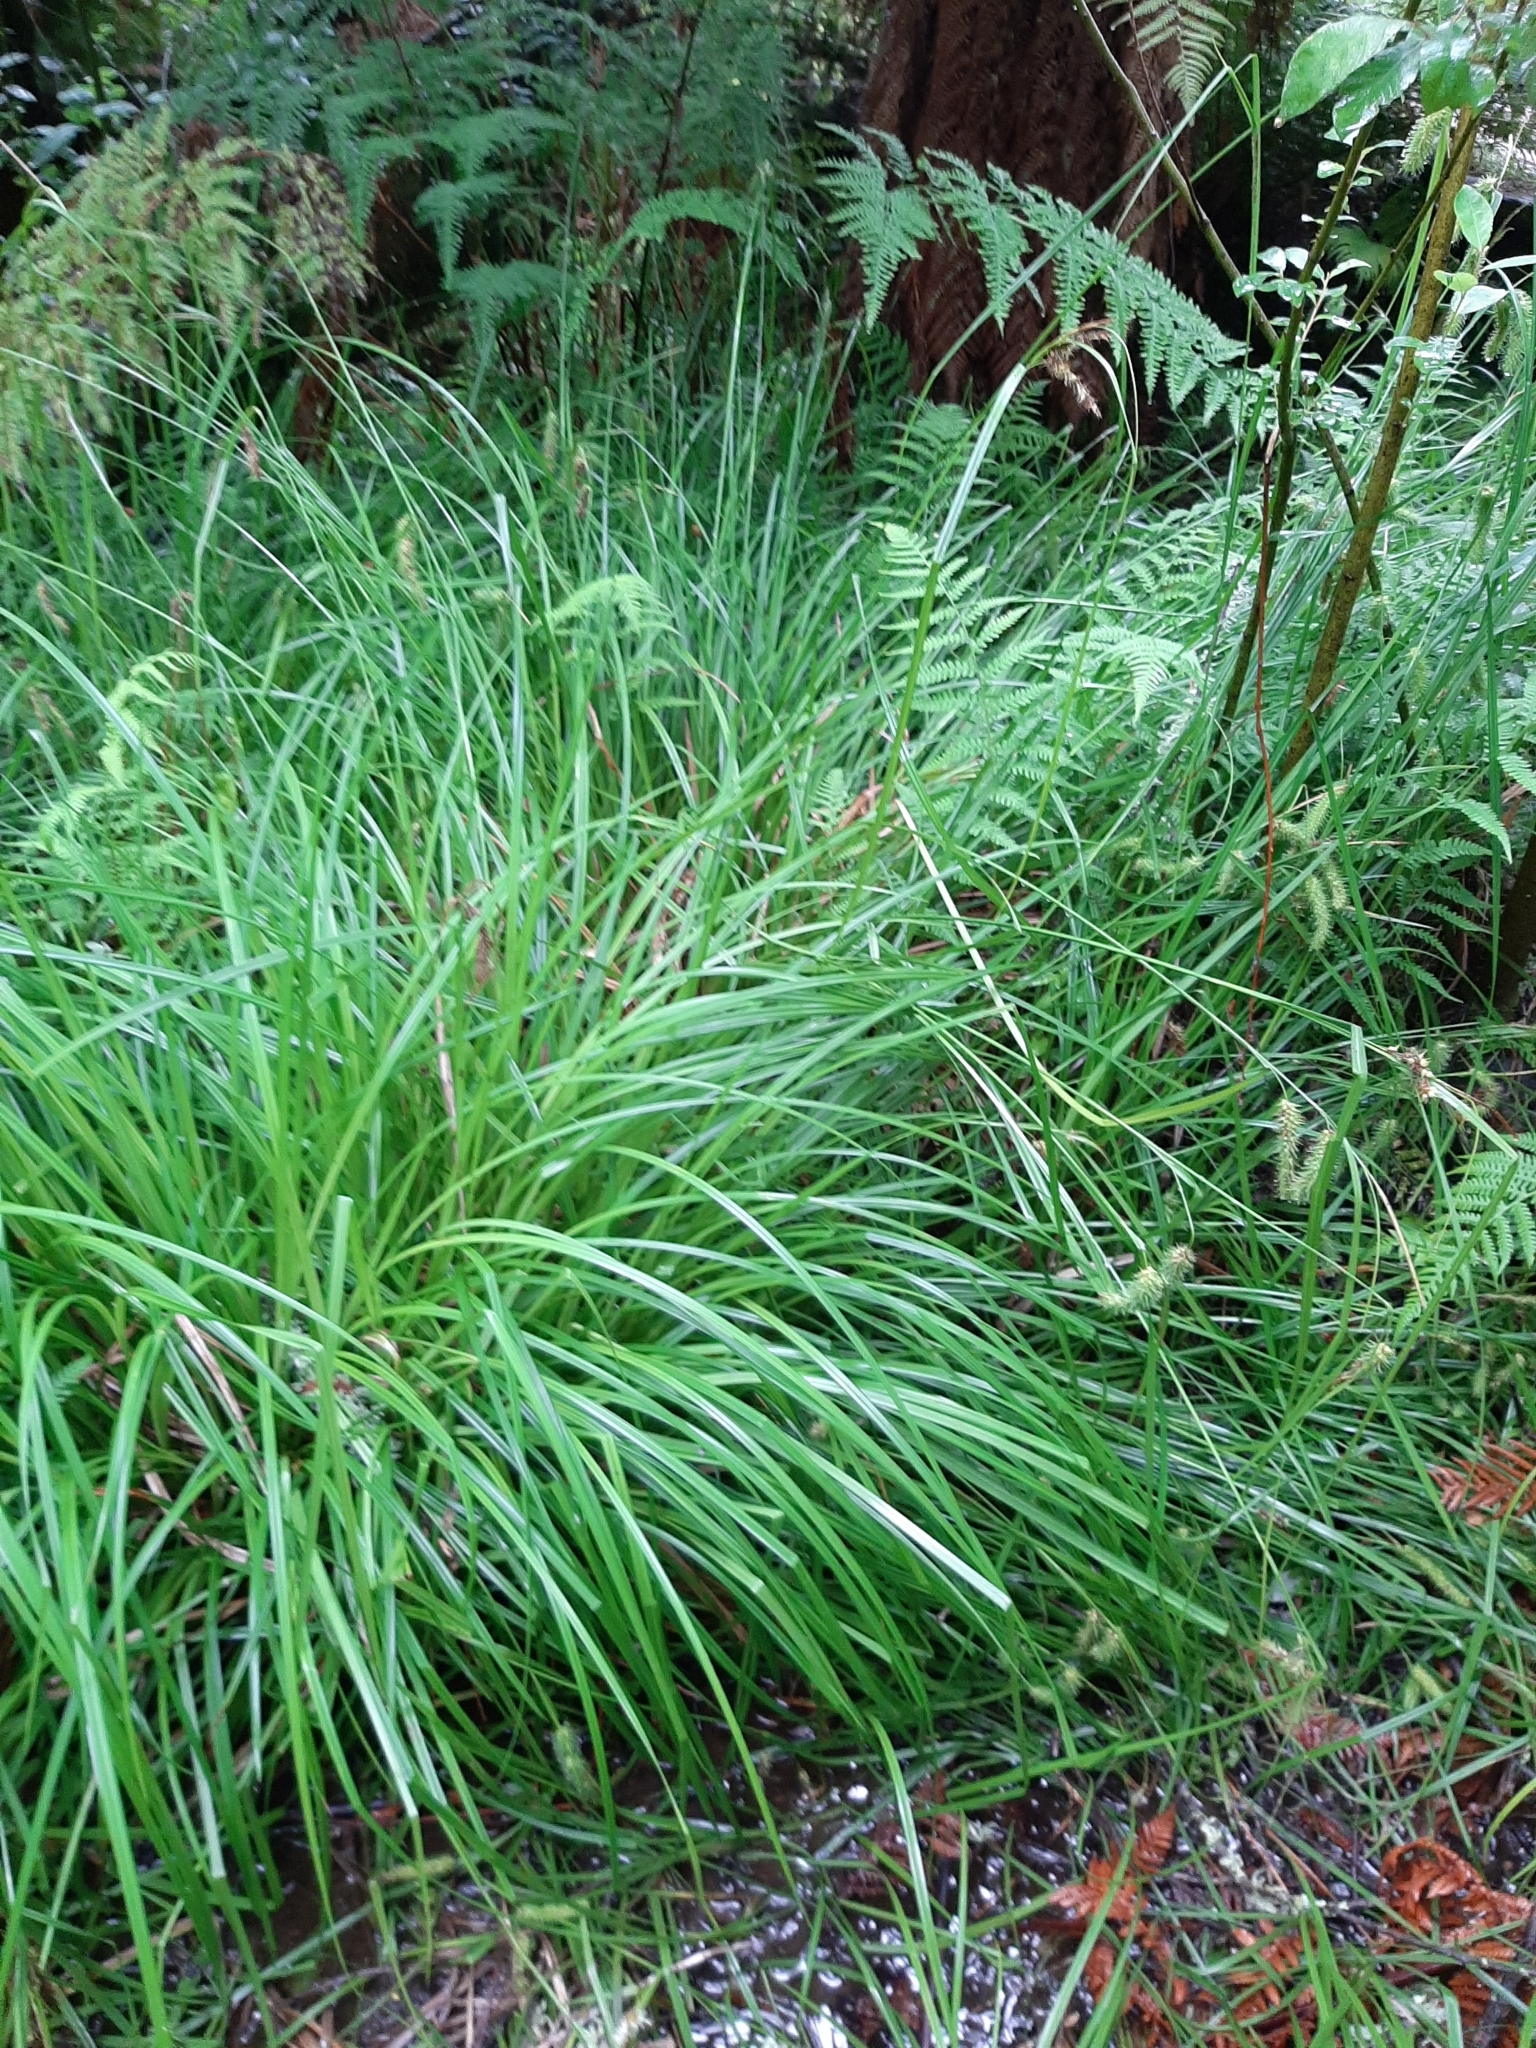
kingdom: Plantae
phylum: Tracheophyta
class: Liliopsida
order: Poales
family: Cyperaceae
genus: Carex
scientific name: Carex maorica
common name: Maori sedge
